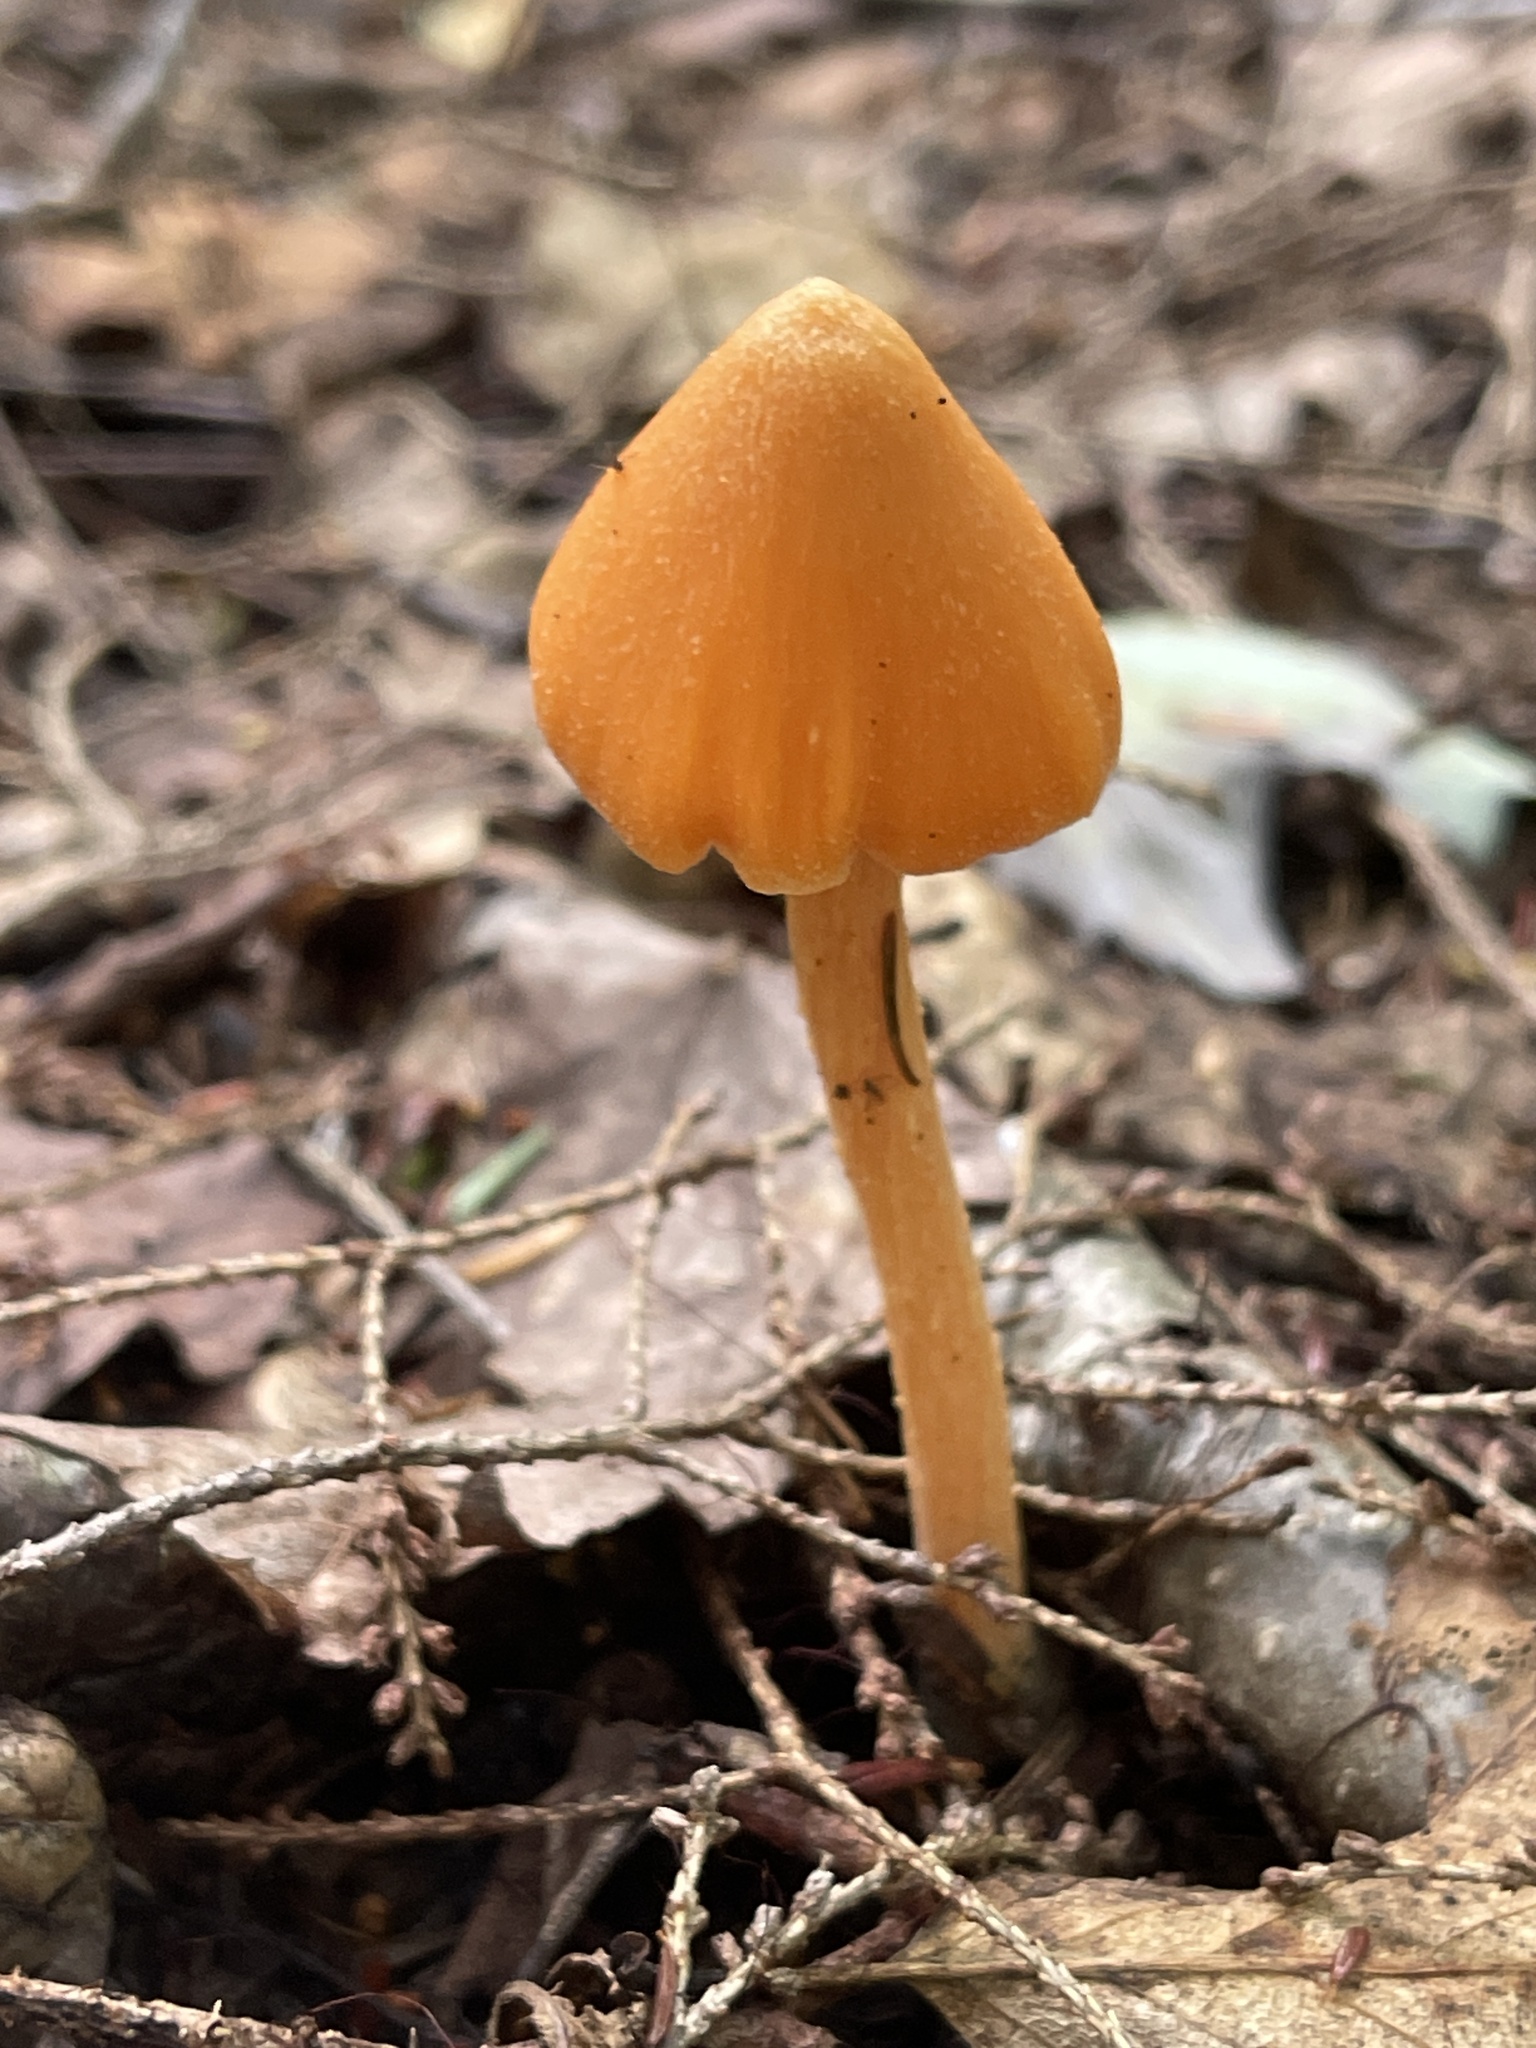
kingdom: Fungi
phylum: Basidiomycota
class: Agaricomycetes
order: Agaricales
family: Entolomataceae
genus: Entoloma
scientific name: Entoloma quadratum
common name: Salmon pinkgill
